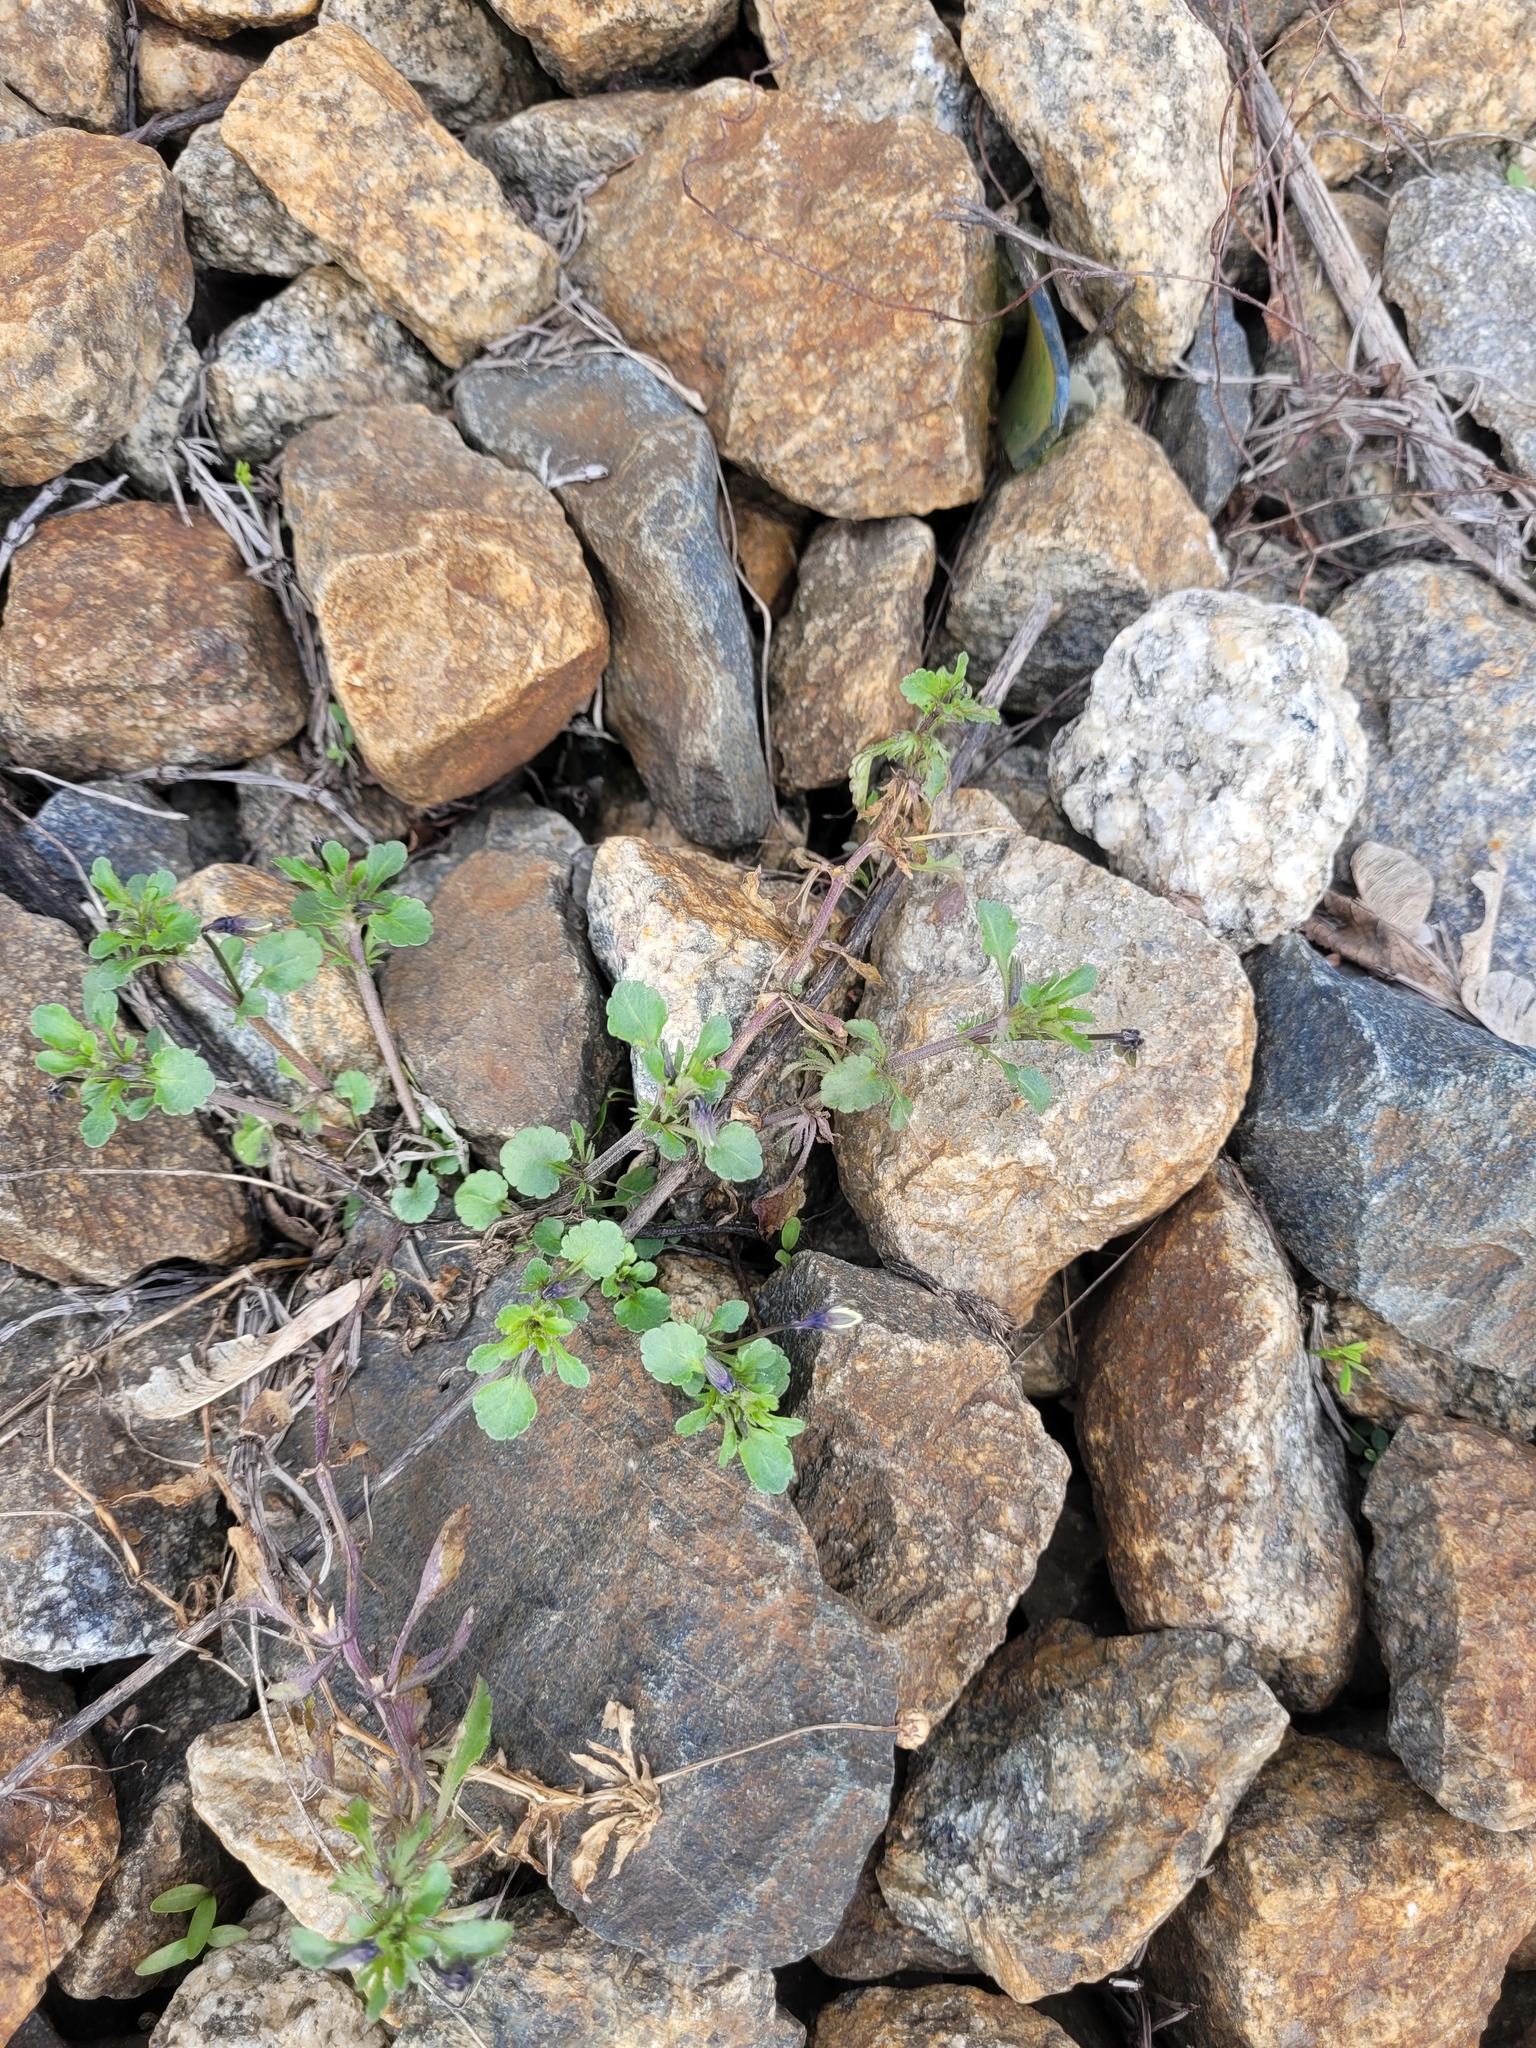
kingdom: Plantae
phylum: Tracheophyta
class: Magnoliopsida
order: Malpighiales
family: Violaceae
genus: Viola
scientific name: Viola arvensis
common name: Field pansy
